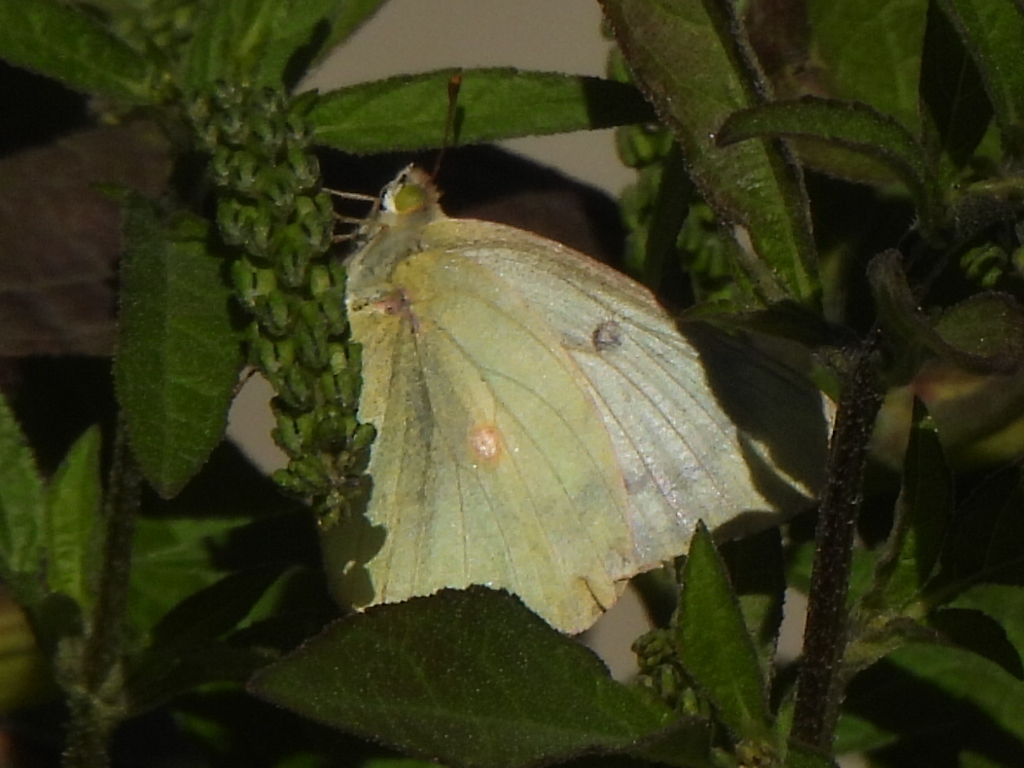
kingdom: Animalia
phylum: Arthropoda
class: Insecta
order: Lepidoptera
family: Pieridae
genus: Colias
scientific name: Colias eurytheme
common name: Alfalfa butterfly
